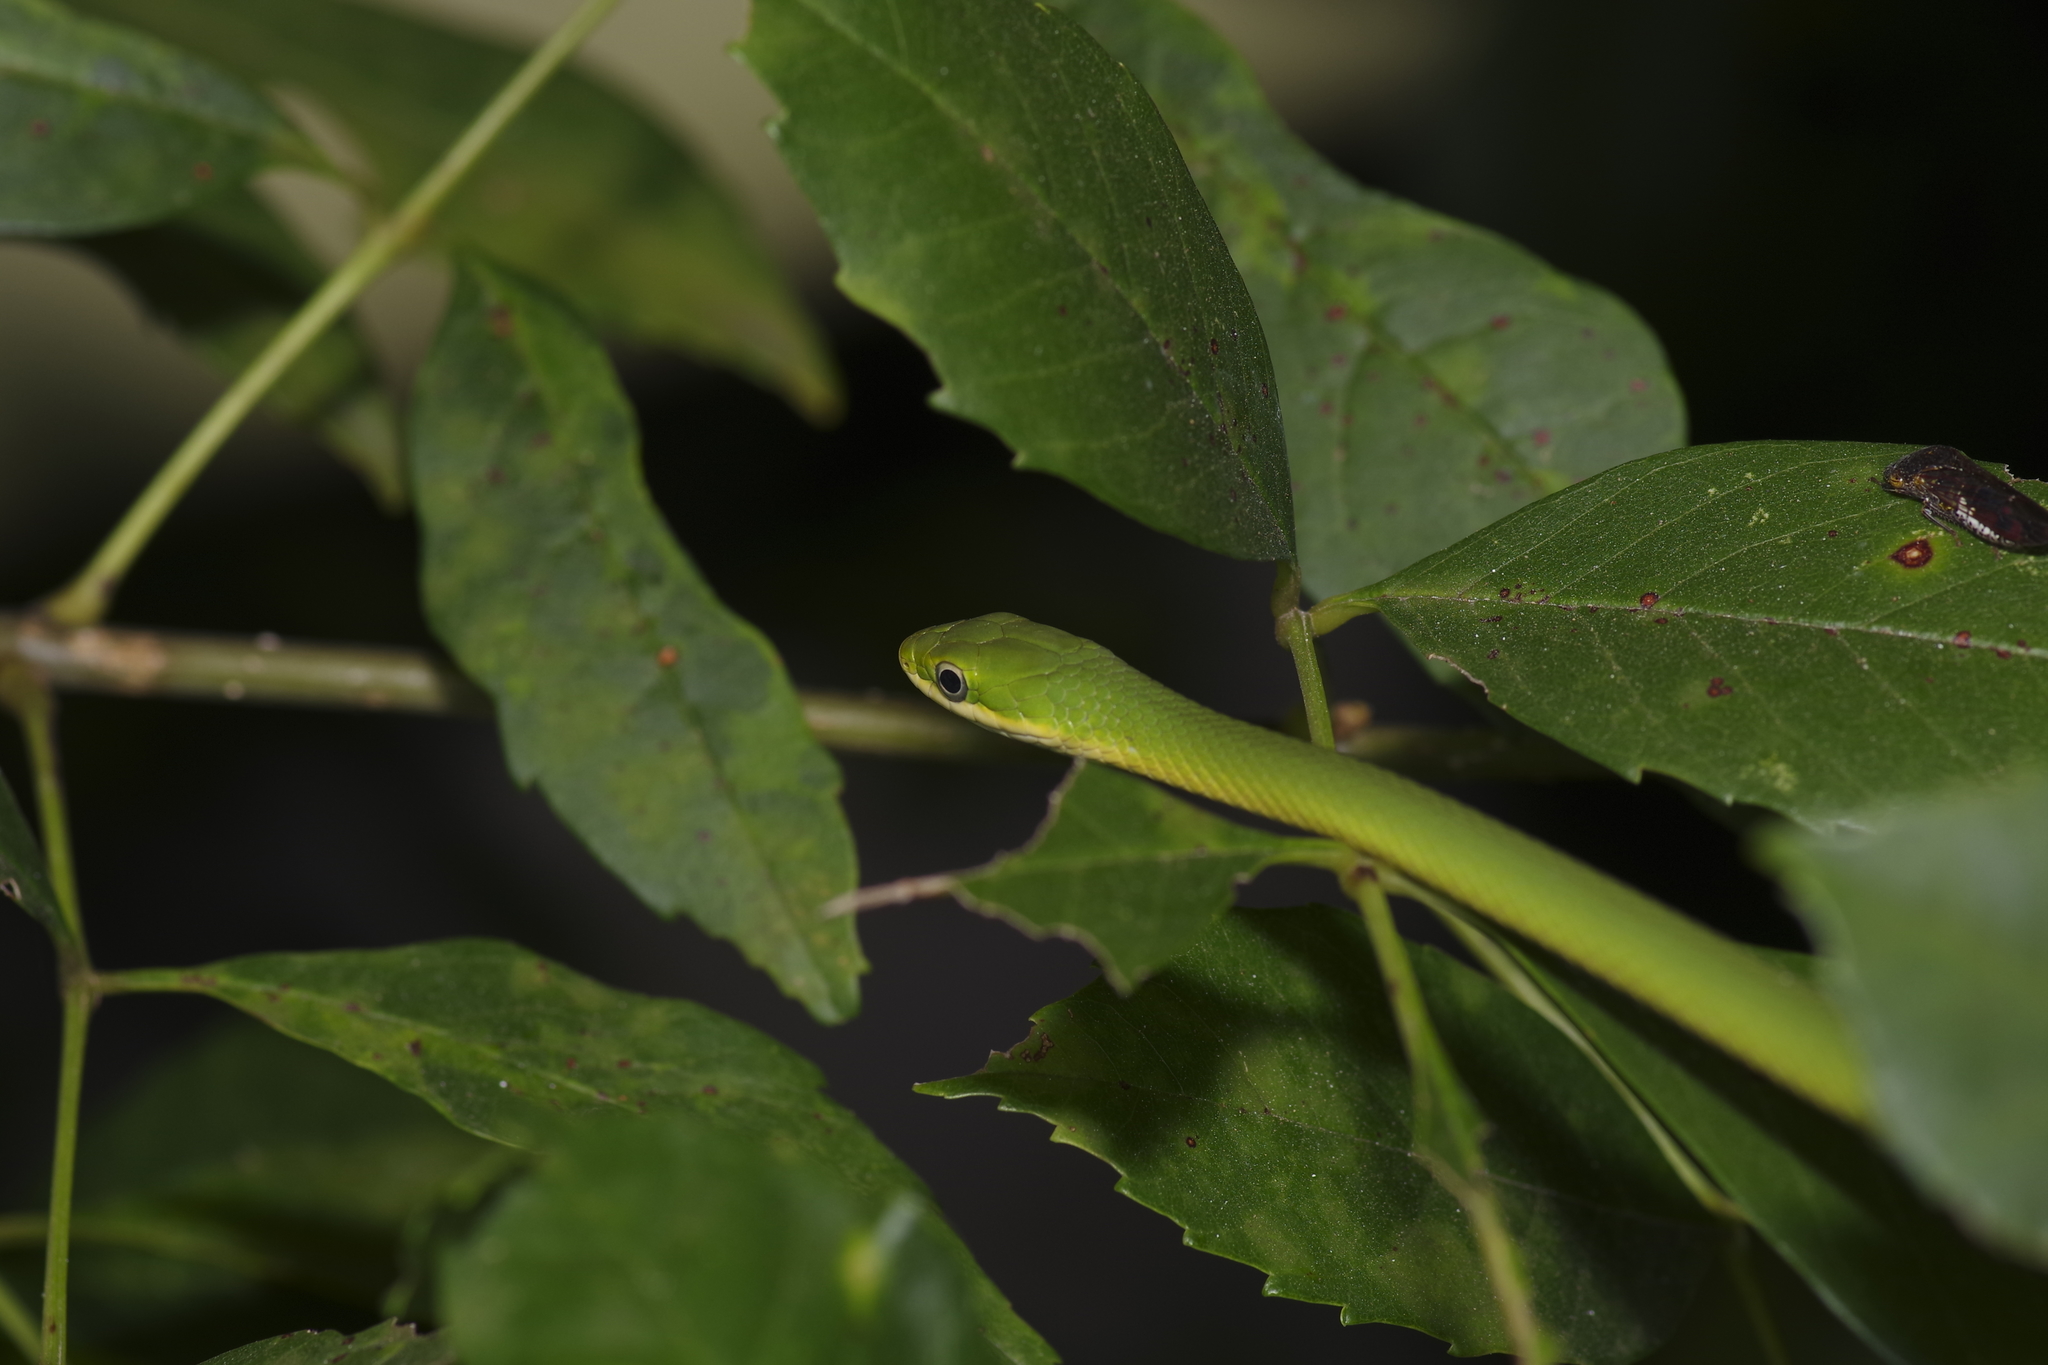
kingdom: Animalia
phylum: Chordata
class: Squamata
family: Colubridae
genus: Opheodrys
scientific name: Opheodrys aestivus
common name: Rough greensnake
